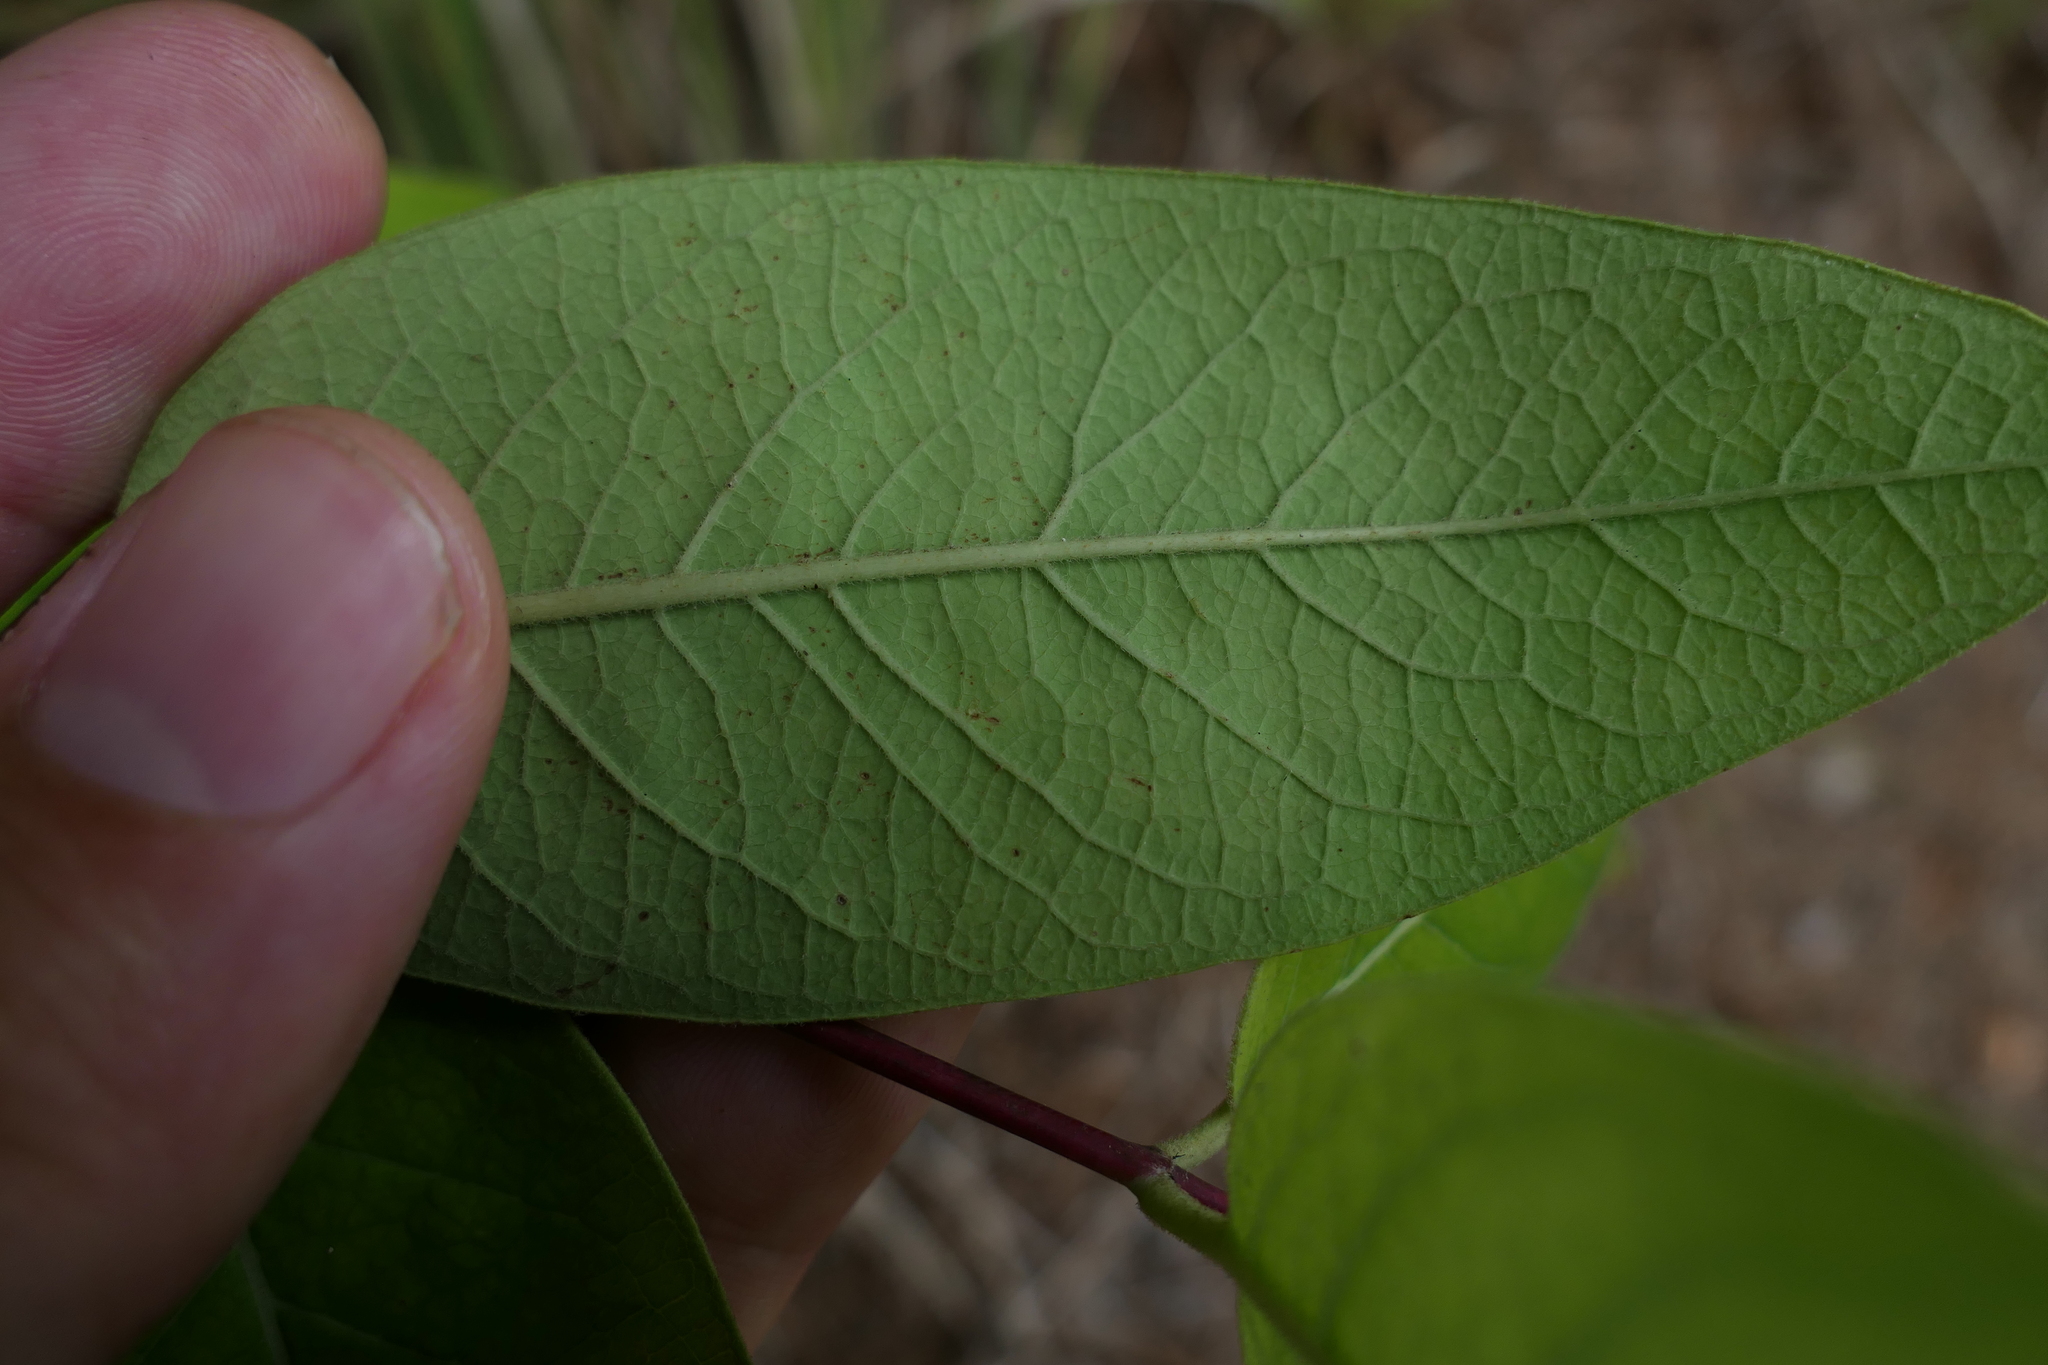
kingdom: Plantae
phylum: Tracheophyta
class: Magnoliopsida
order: Gentianales
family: Apocynaceae
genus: Apocynum
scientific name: Apocynum cannabinum
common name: Hemp dogbane
